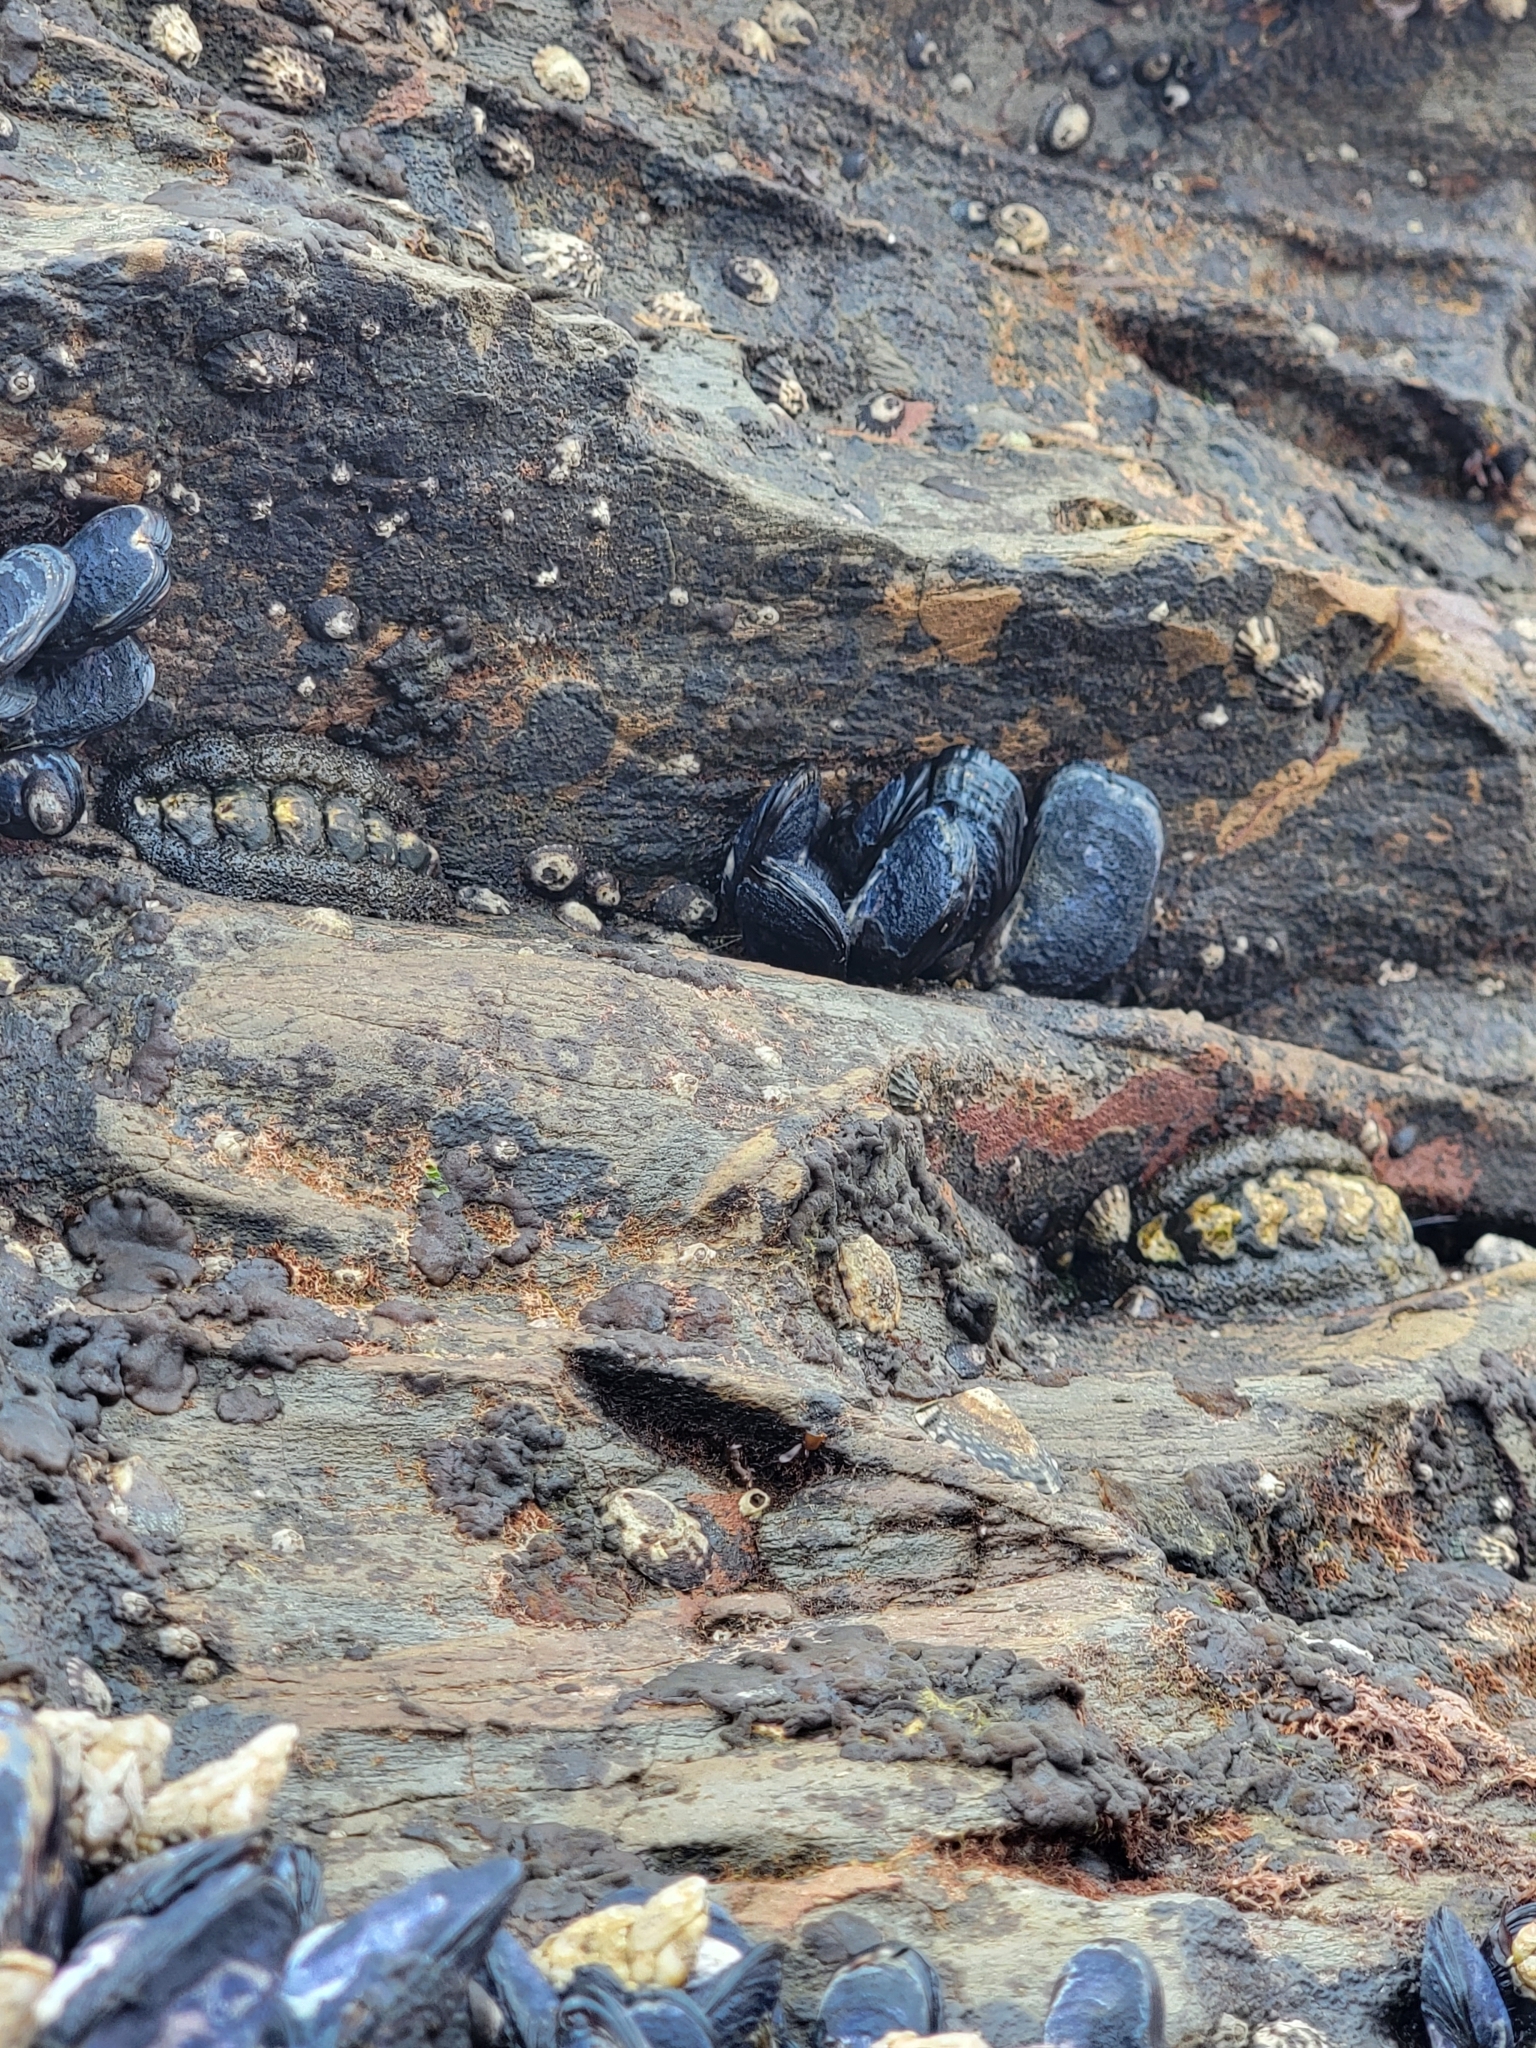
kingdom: Animalia
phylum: Mollusca
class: Polyplacophora
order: Chitonida
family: Tonicellidae
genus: Nuttallina
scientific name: Nuttallina californica
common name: California nuttall chiton
